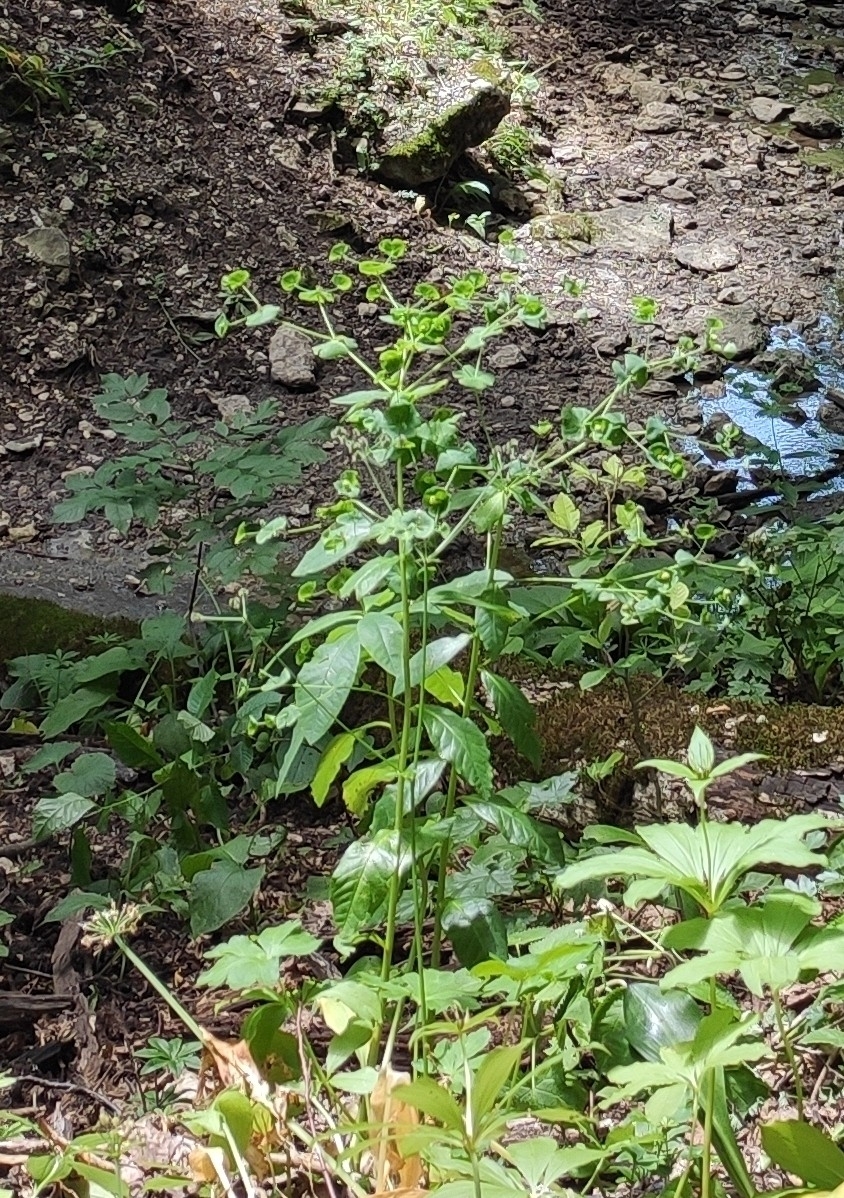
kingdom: Plantae
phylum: Tracheophyta
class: Magnoliopsida
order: Malpighiales
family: Euphorbiaceae
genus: Euphorbia
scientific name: Euphorbia squamosa
